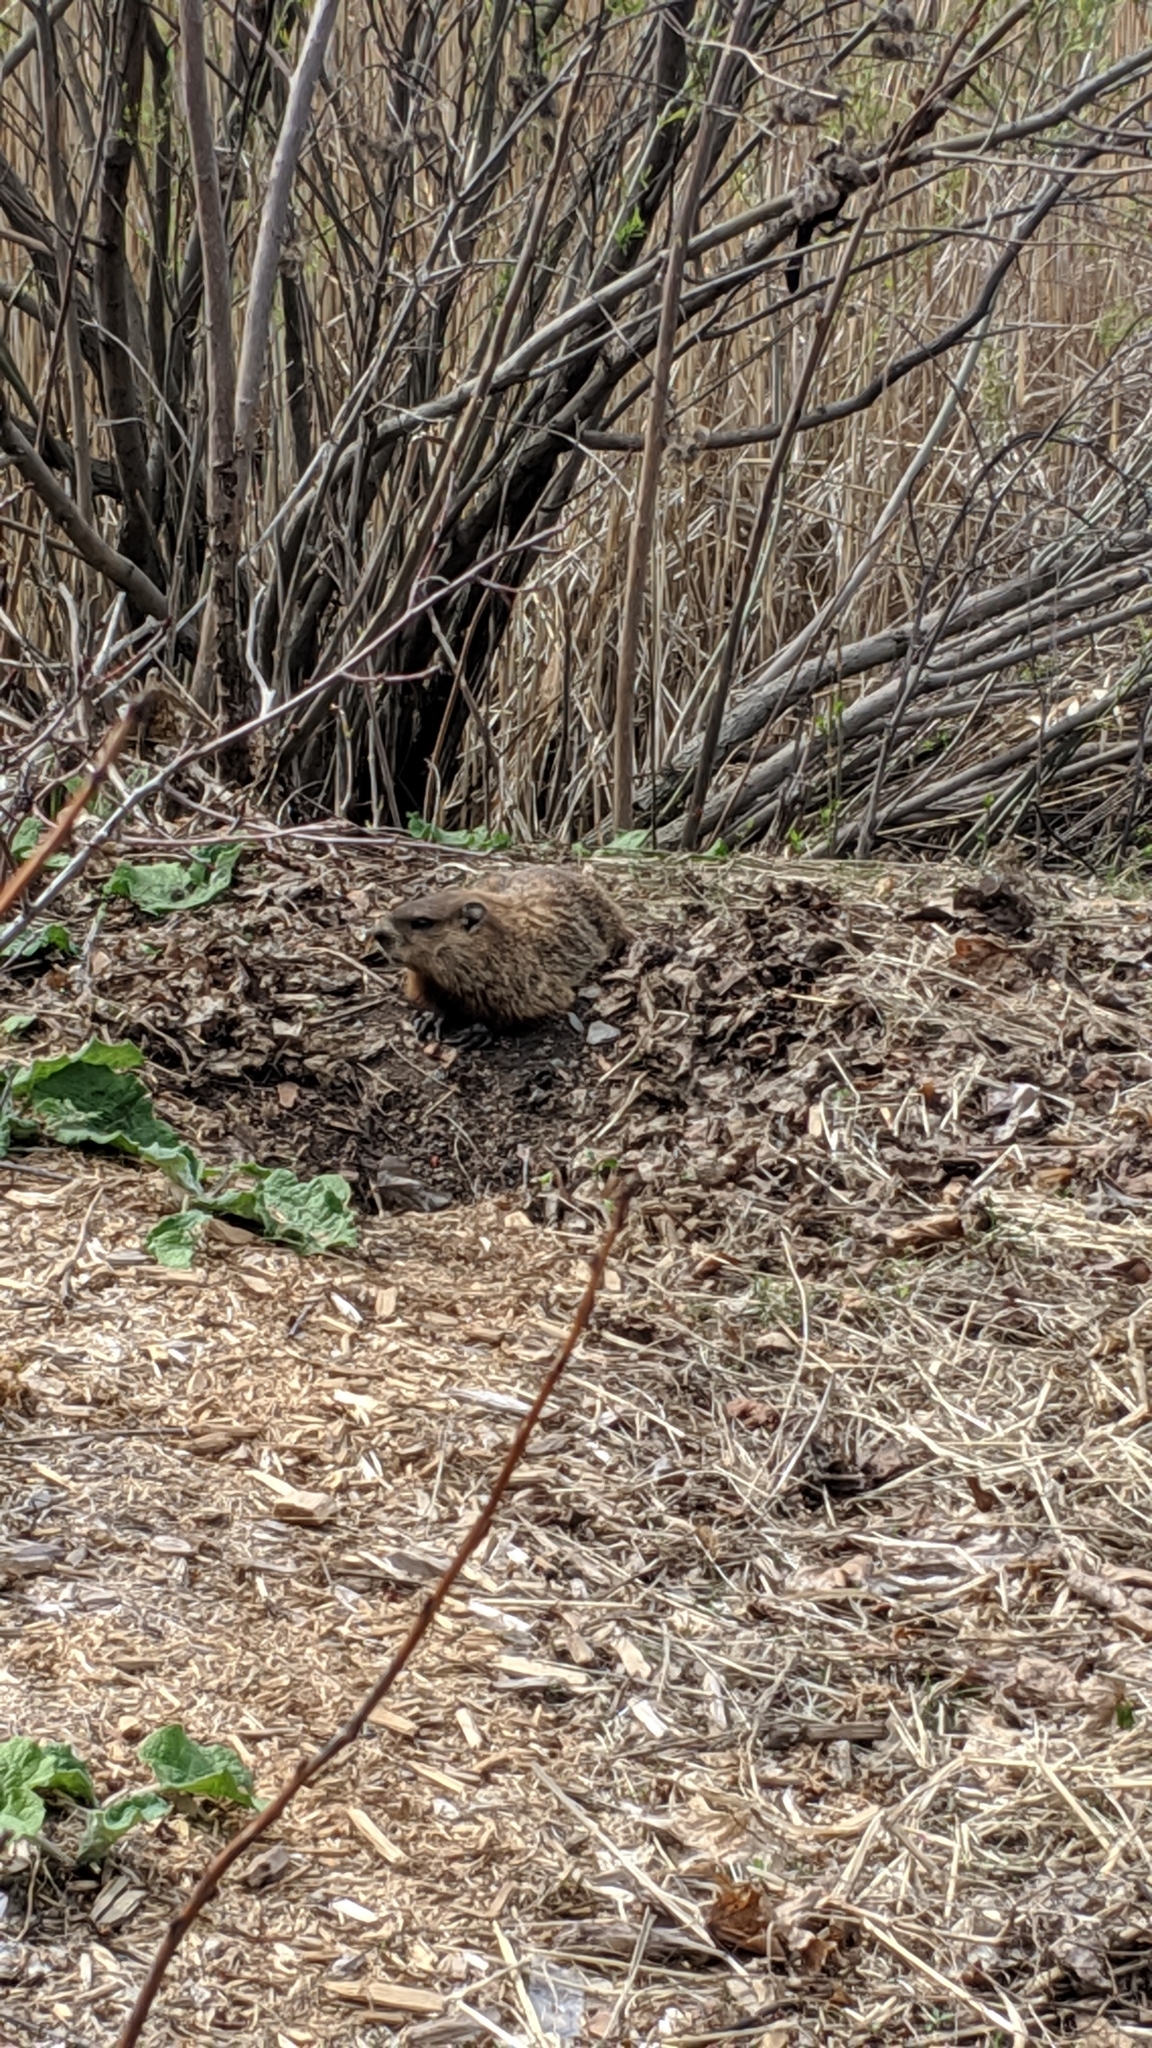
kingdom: Animalia
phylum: Chordata
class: Mammalia
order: Rodentia
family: Sciuridae
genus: Marmota
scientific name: Marmota monax
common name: Groundhog
